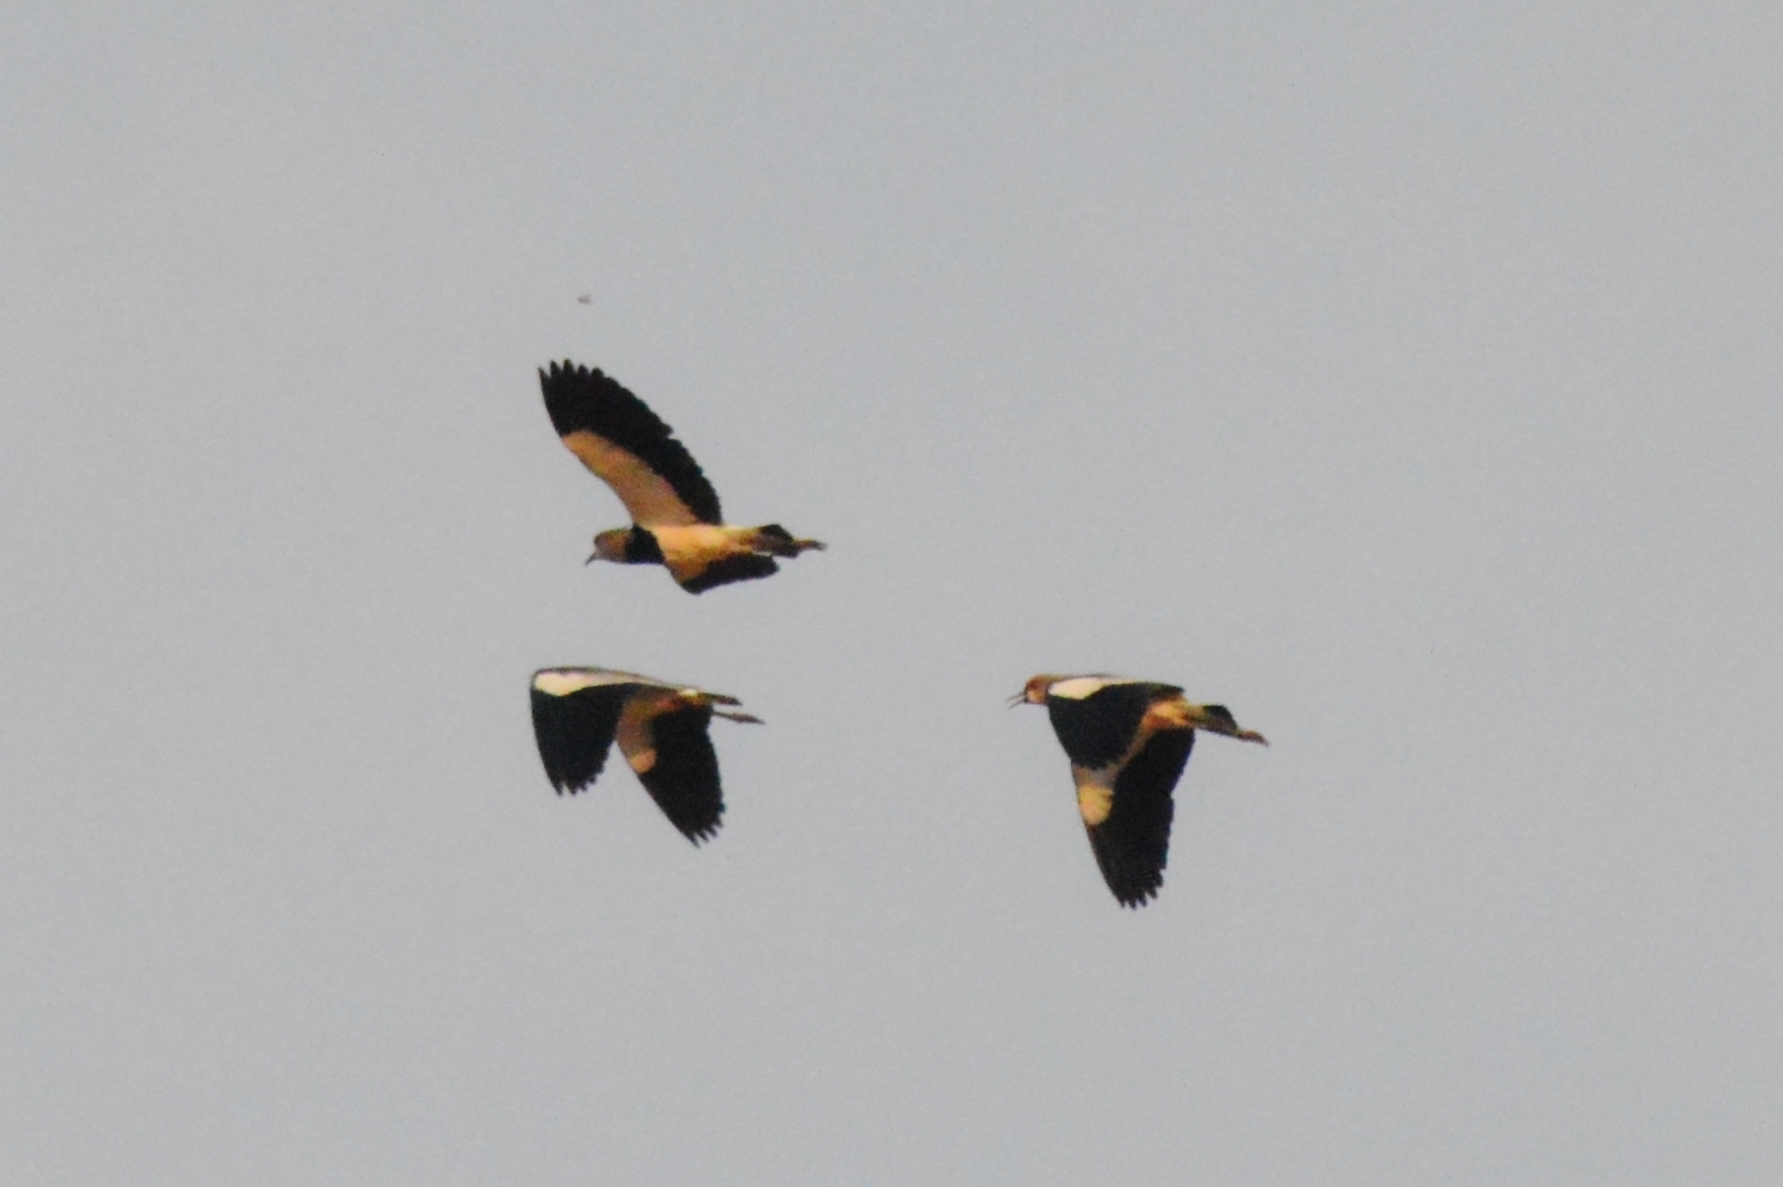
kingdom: Animalia
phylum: Chordata
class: Aves
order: Charadriiformes
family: Charadriidae
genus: Vanellus
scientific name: Vanellus chilensis
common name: Southern lapwing
